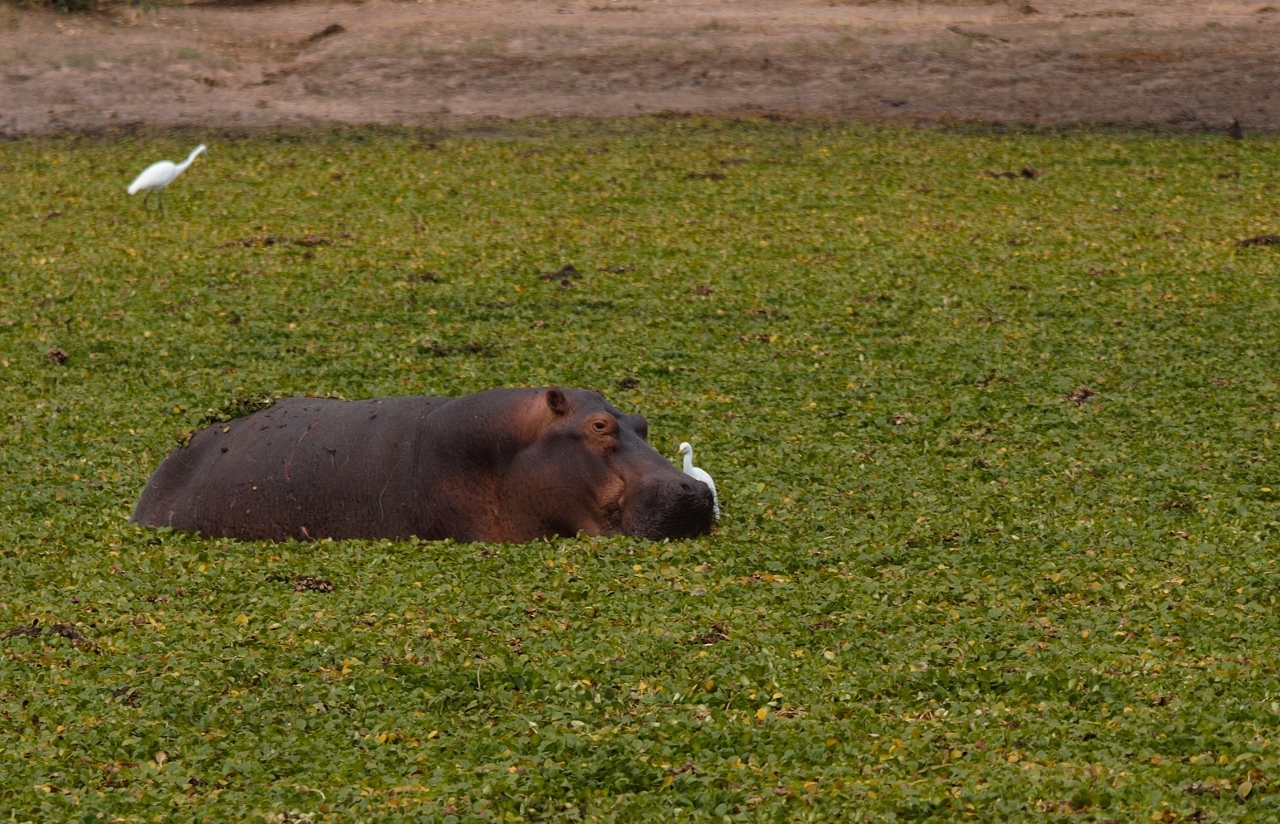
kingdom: Animalia
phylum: Chordata
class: Mammalia
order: Artiodactyla
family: Hippopotamidae
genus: Hippopotamus
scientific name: Hippopotamus amphibius
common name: Common hippopotamus
